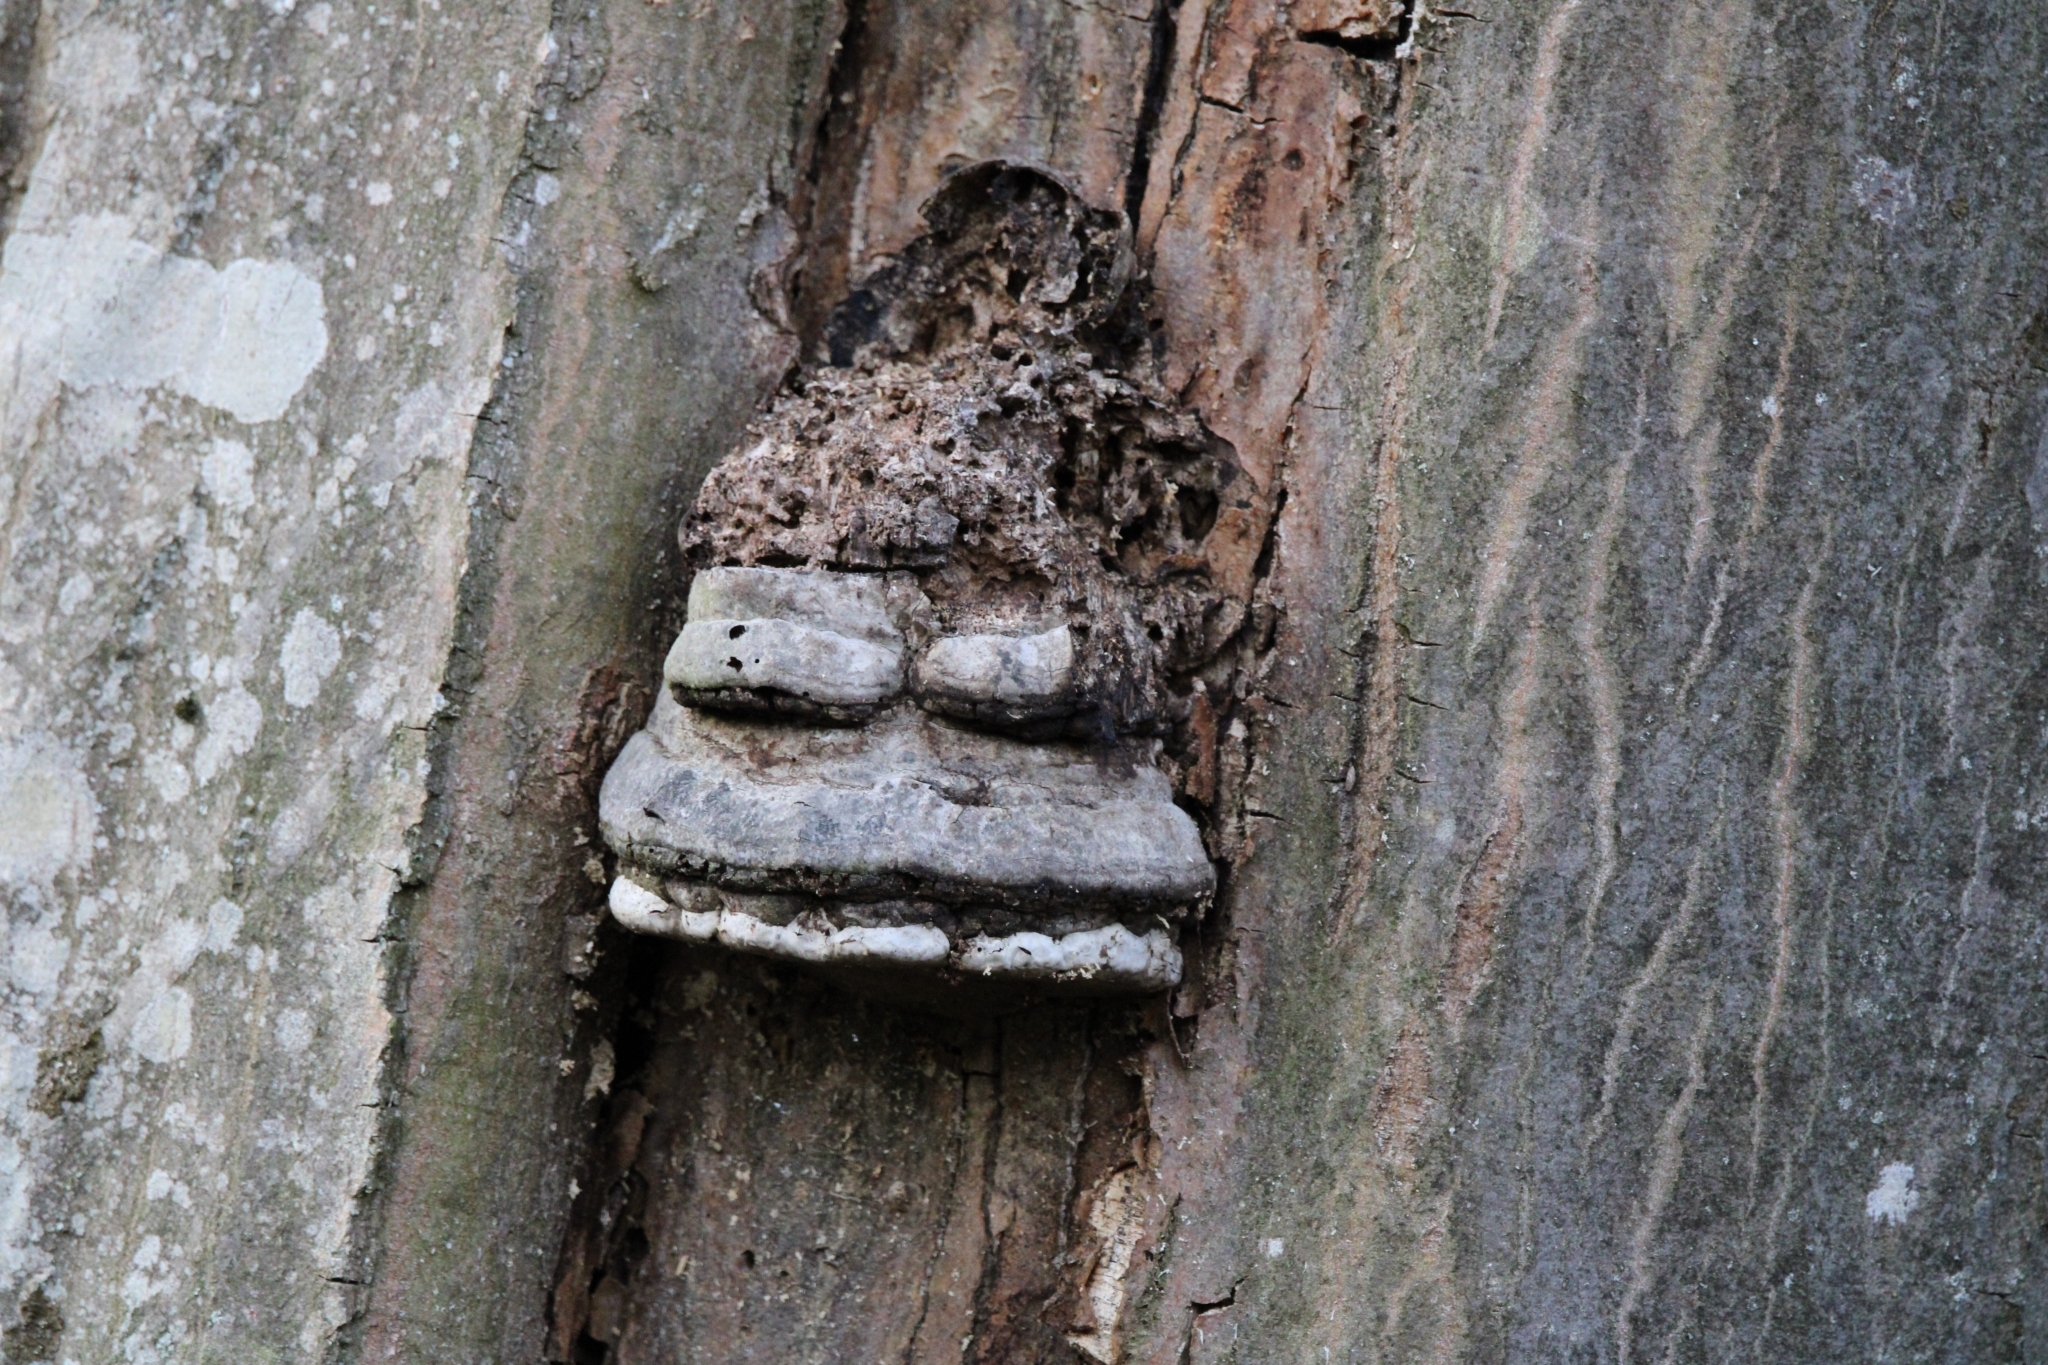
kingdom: Fungi
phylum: Basidiomycota
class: Agaricomycetes
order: Polyporales
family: Polyporaceae
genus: Fomes
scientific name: Fomes fomentarius
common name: Hoof fungus
